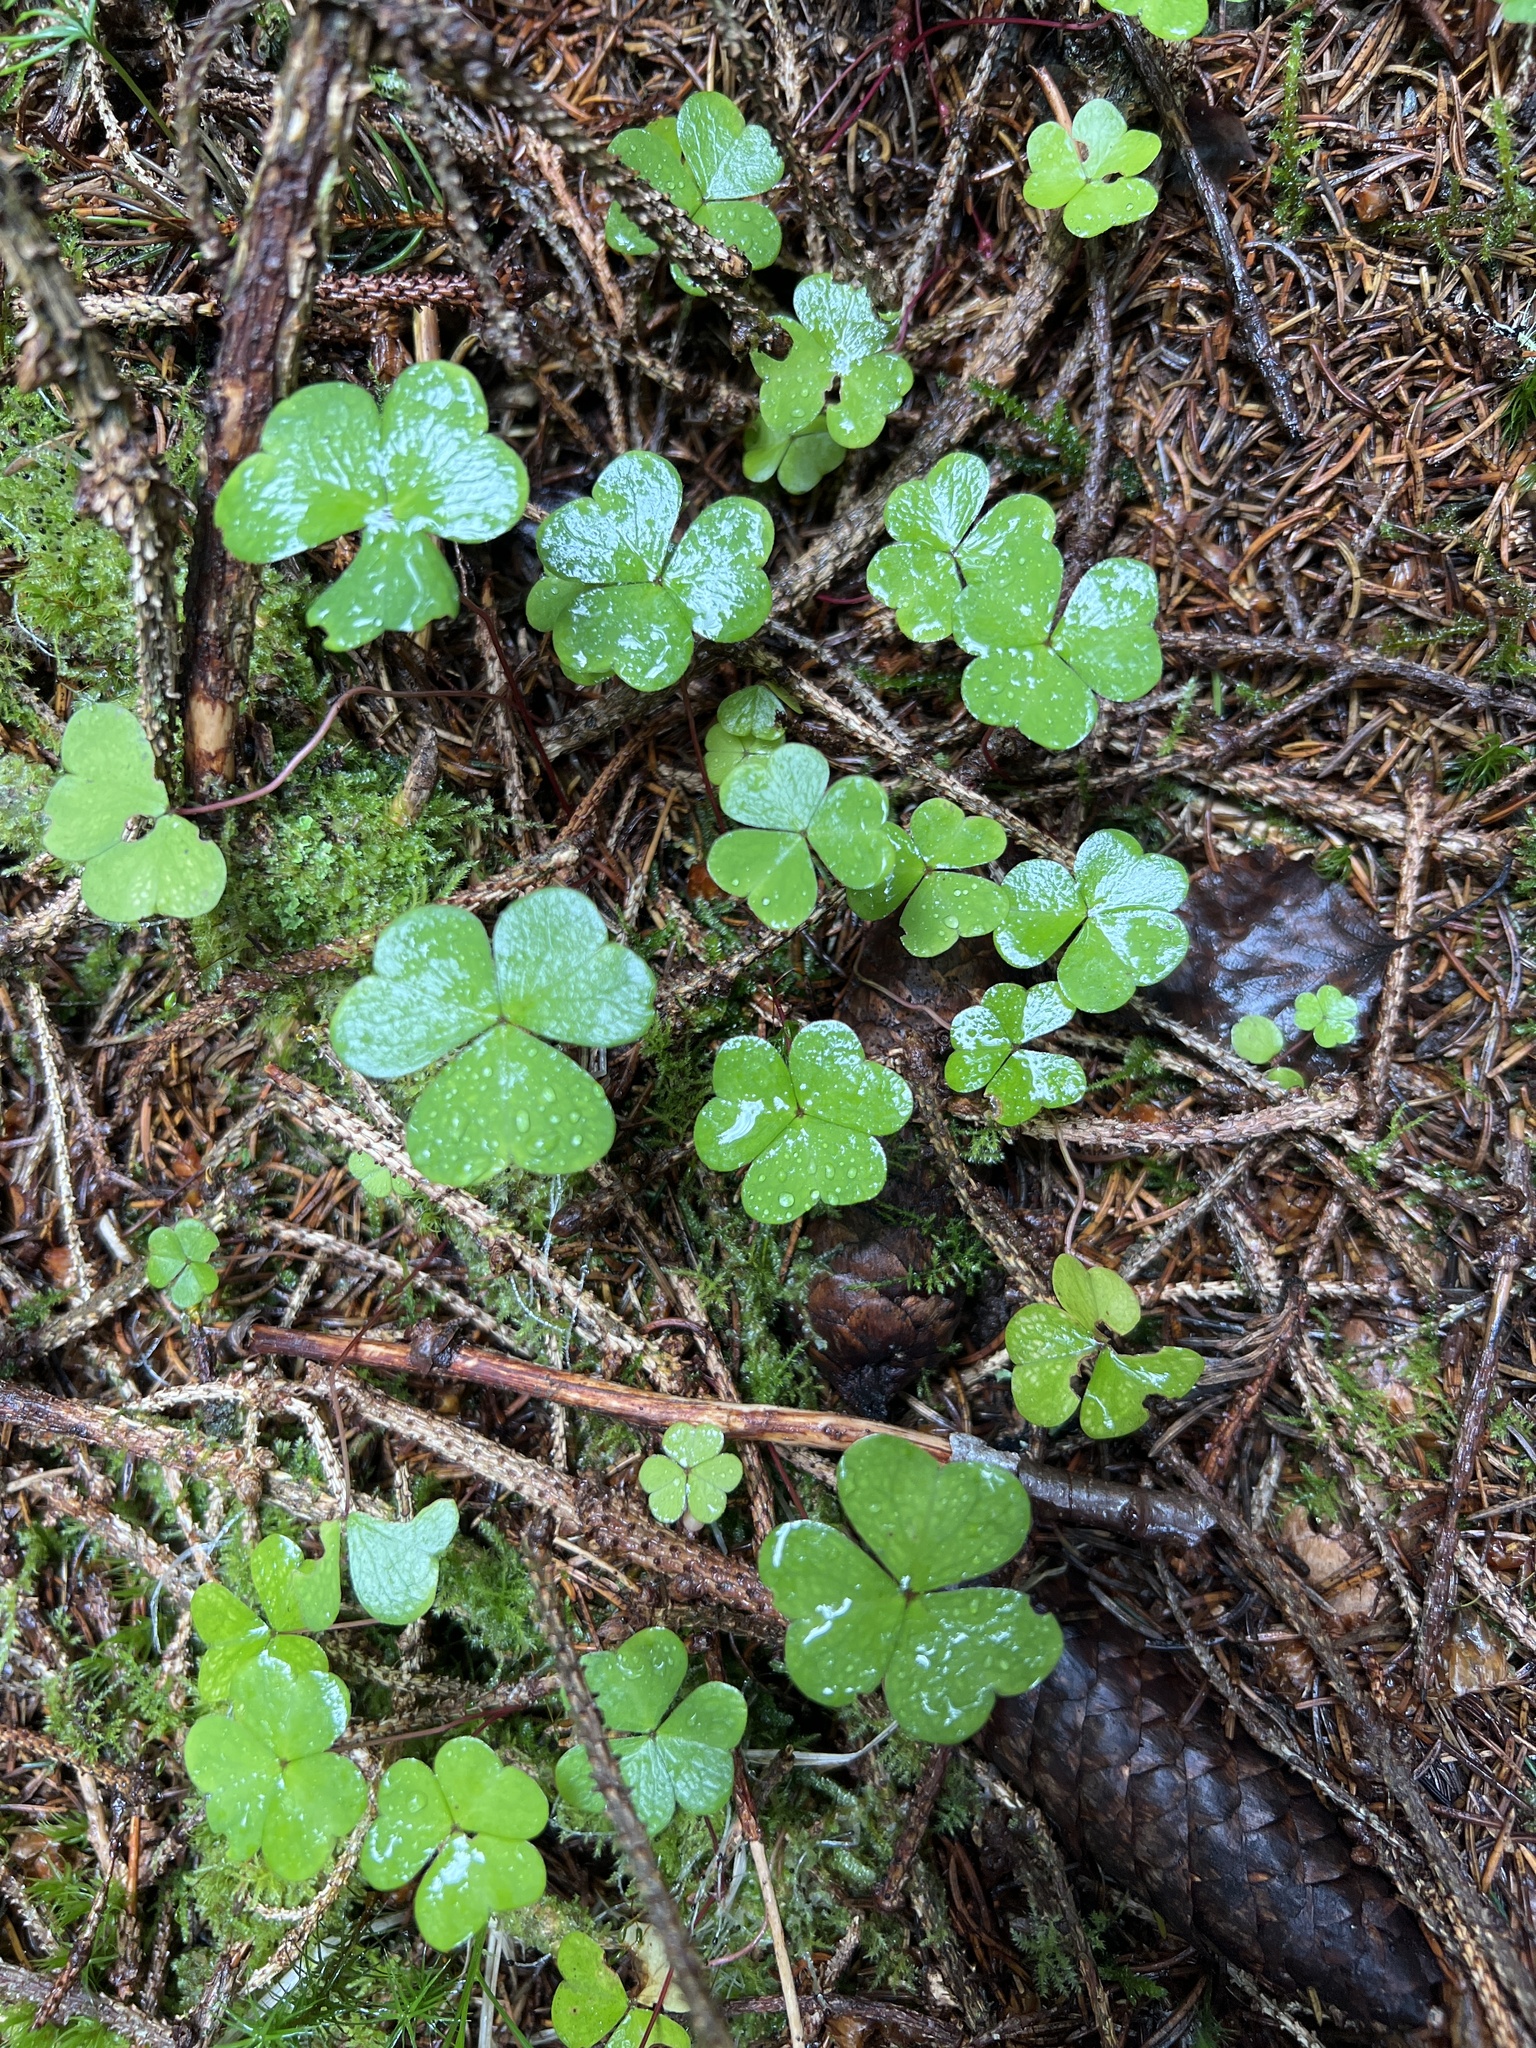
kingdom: Plantae
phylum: Tracheophyta
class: Magnoliopsida
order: Oxalidales
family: Oxalidaceae
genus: Oxalis
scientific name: Oxalis acetosella
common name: Wood-sorrel
